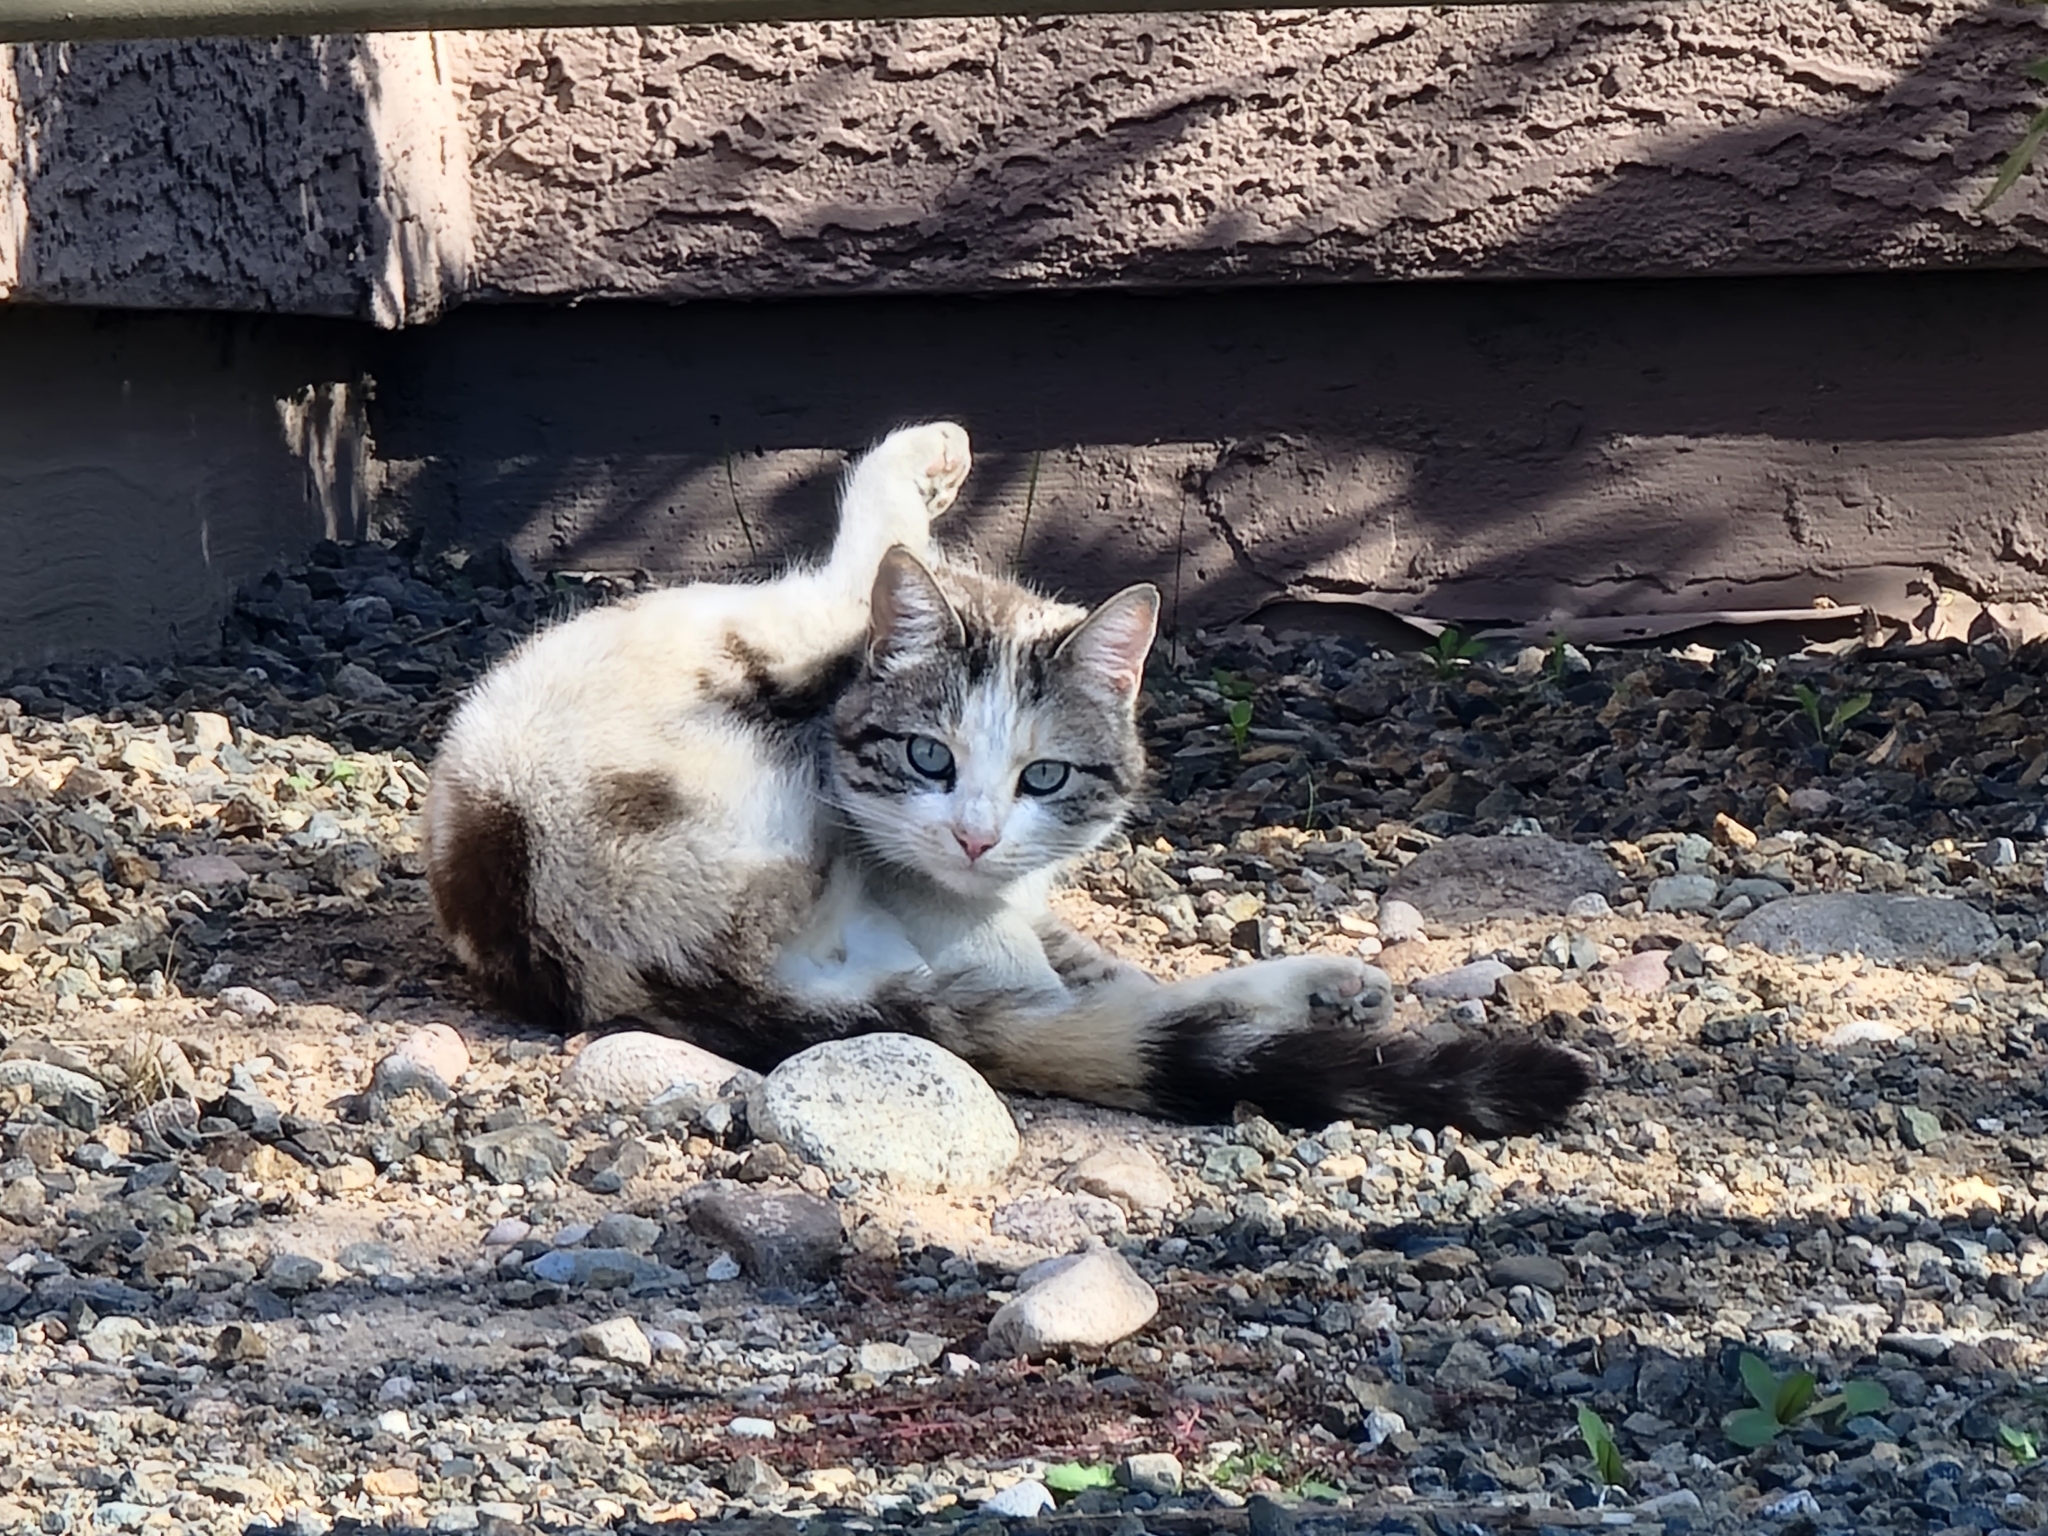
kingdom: Animalia
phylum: Chordata
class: Mammalia
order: Carnivora
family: Felidae
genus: Felis
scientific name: Felis catus
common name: Domestic cat
